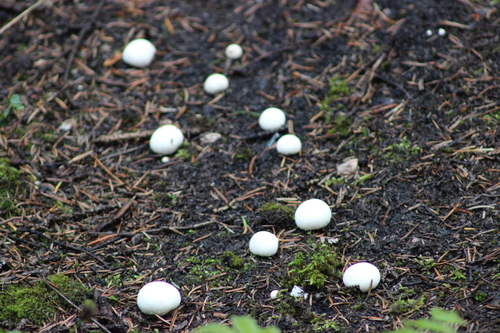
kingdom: Fungi
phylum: Basidiomycota
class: Agaricomycetes
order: Agaricales
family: Lycoperdaceae
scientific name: Lycoperdaceae
